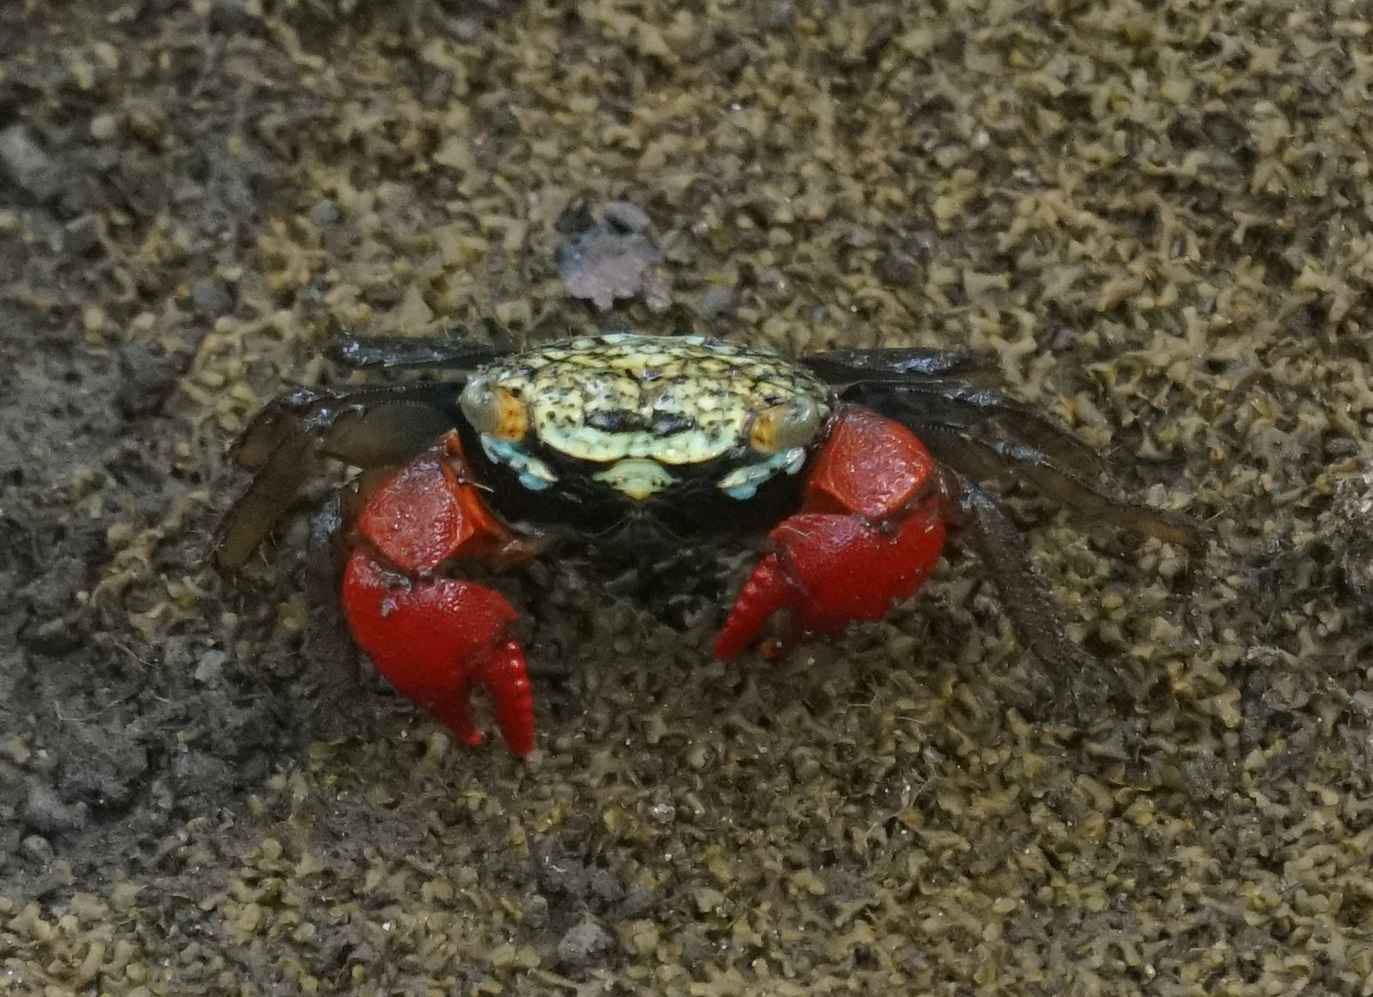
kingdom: Animalia
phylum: Arthropoda
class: Malacostraca
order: Decapoda
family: Sesarmidae
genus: Parasesarma
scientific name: Parasesarma brevicristatum
